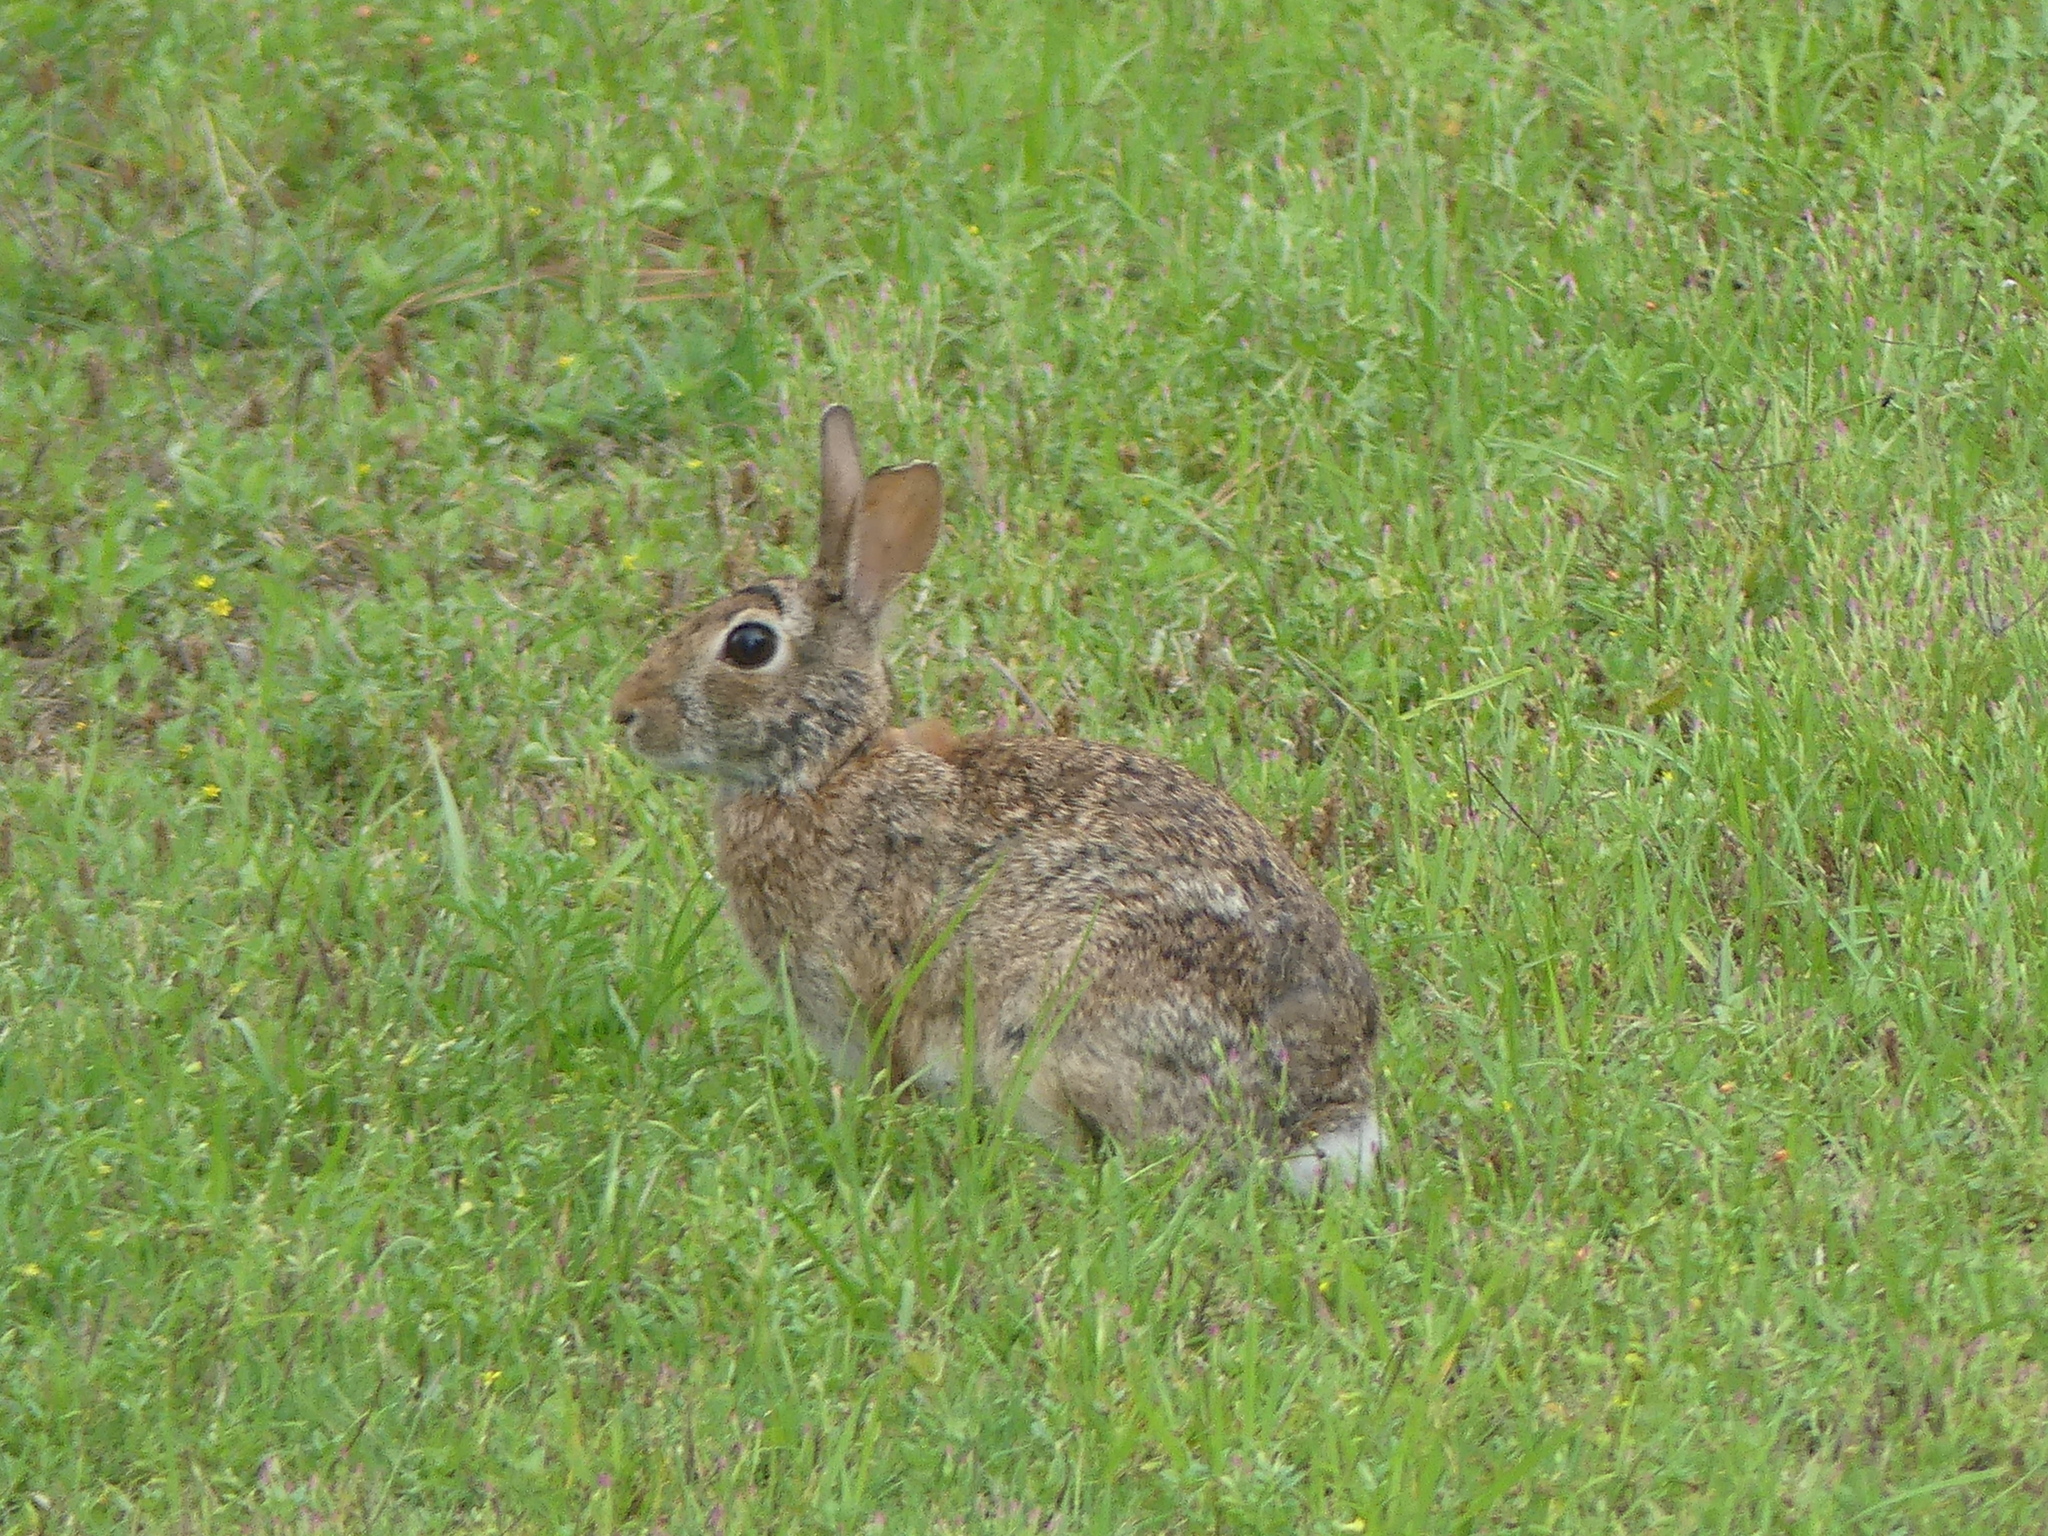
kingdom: Animalia
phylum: Chordata
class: Mammalia
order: Lagomorpha
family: Leporidae
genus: Sylvilagus
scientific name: Sylvilagus floridanus
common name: Eastern cottontail
